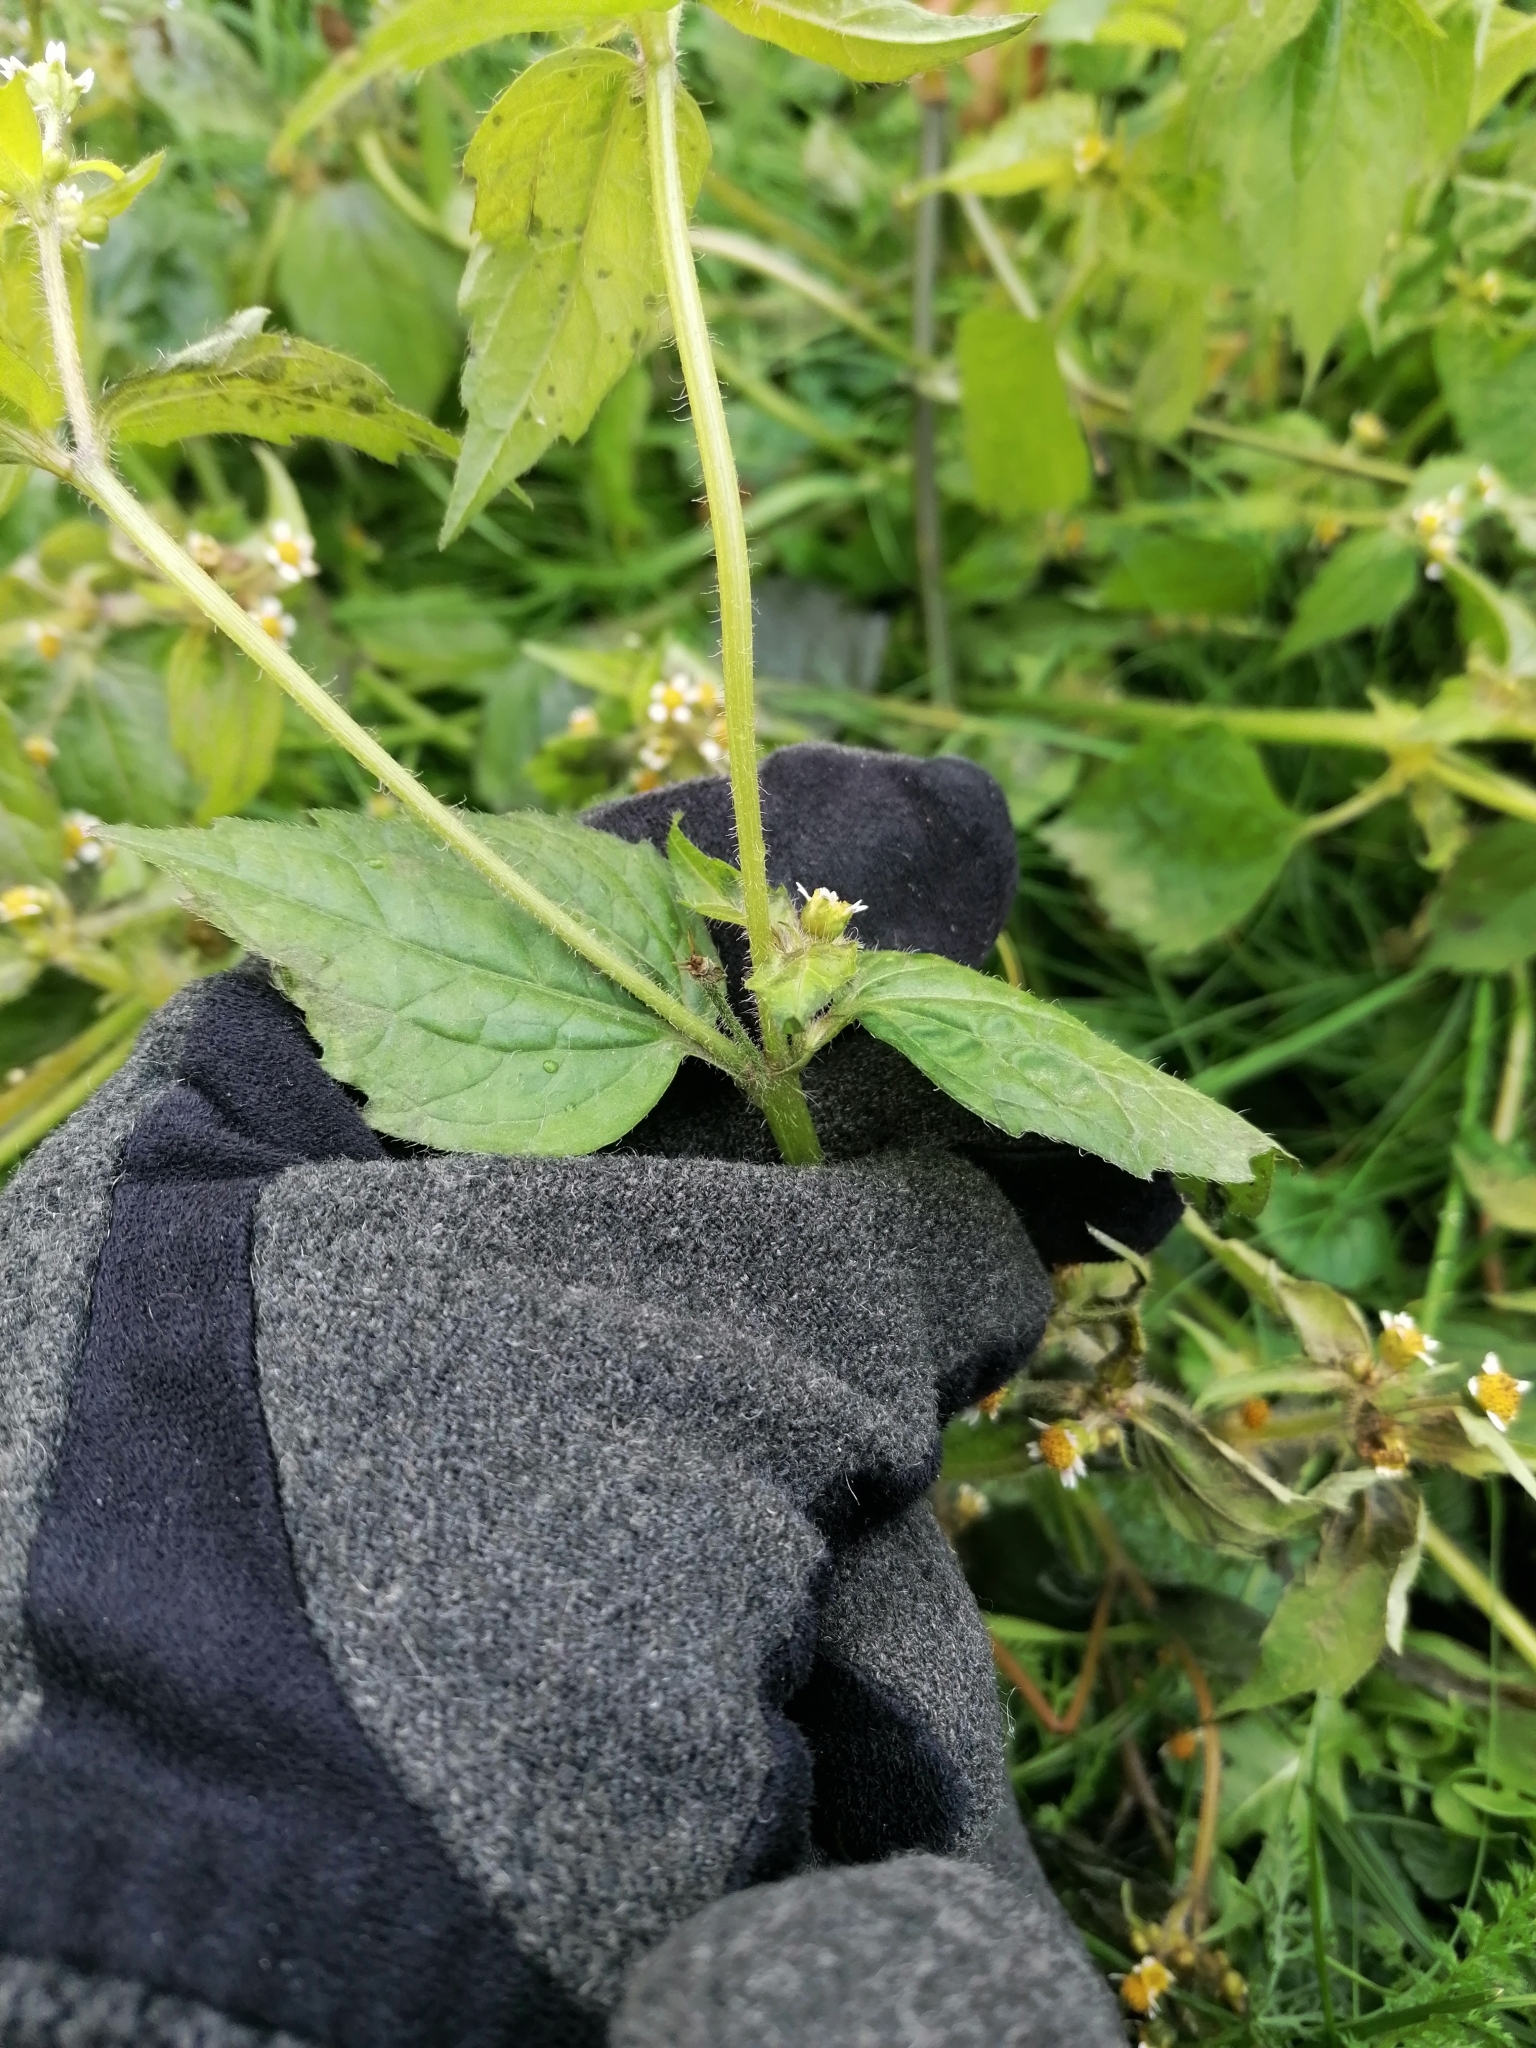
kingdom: Plantae
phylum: Tracheophyta
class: Magnoliopsida
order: Asterales
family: Asteraceae
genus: Galinsoga
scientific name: Galinsoga quadriradiata
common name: Shaggy soldier
